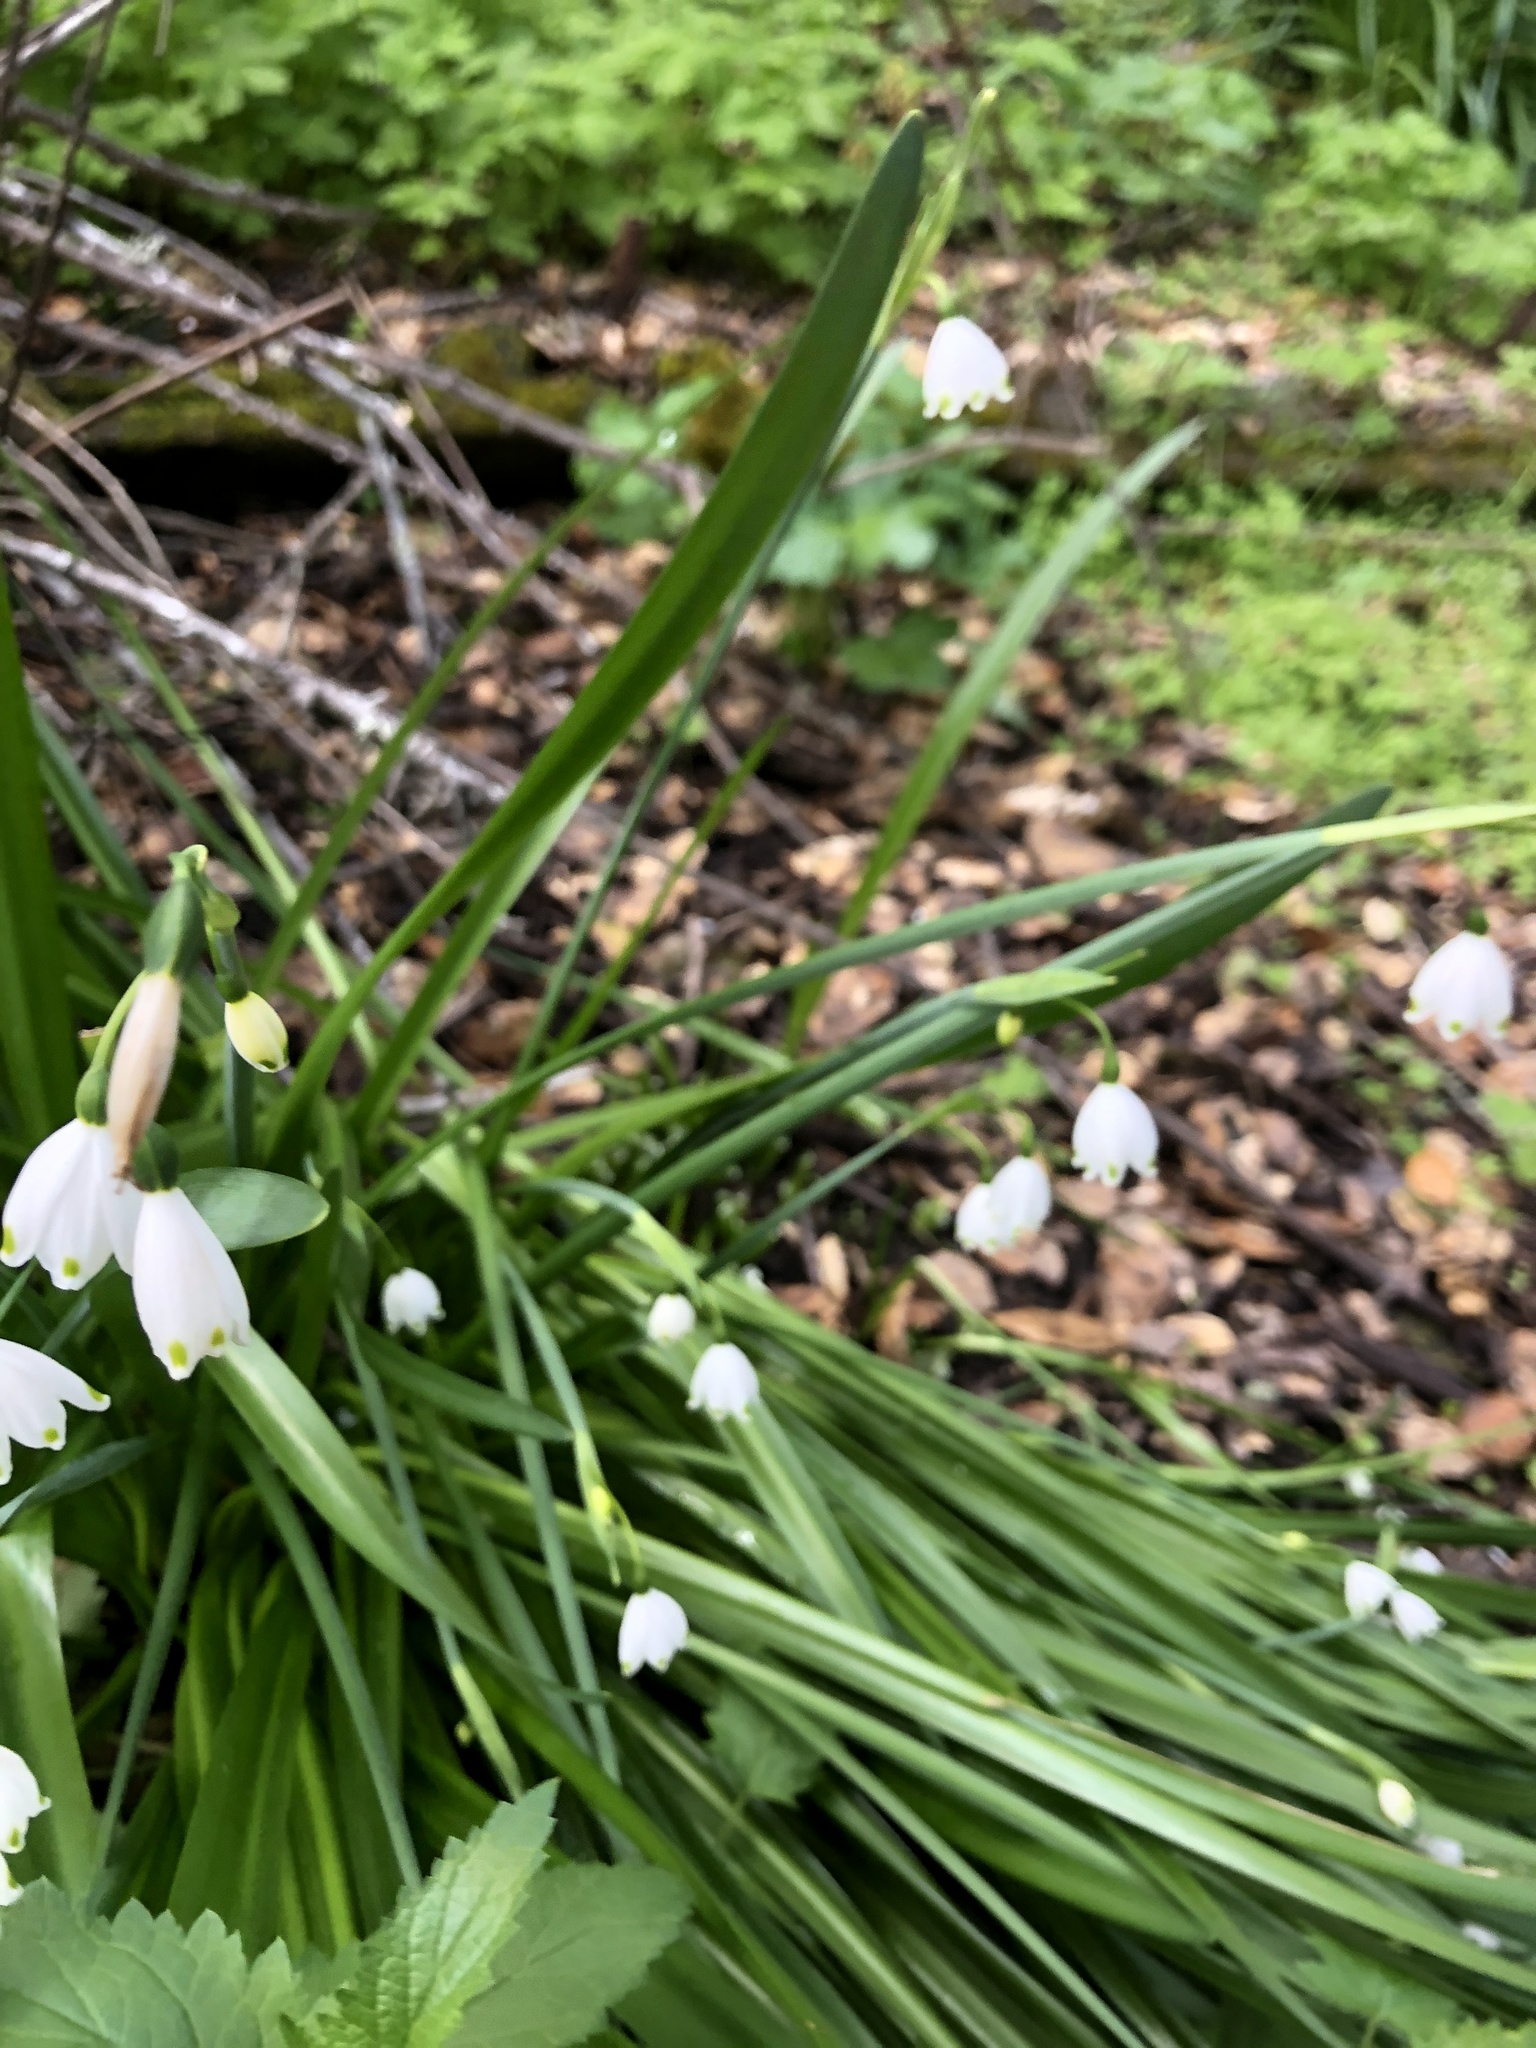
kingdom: Plantae
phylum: Tracheophyta
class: Liliopsida
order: Asparagales
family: Amaryllidaceae
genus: Leucojum
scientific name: Leucojum aestivum
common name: Summer snowflake
